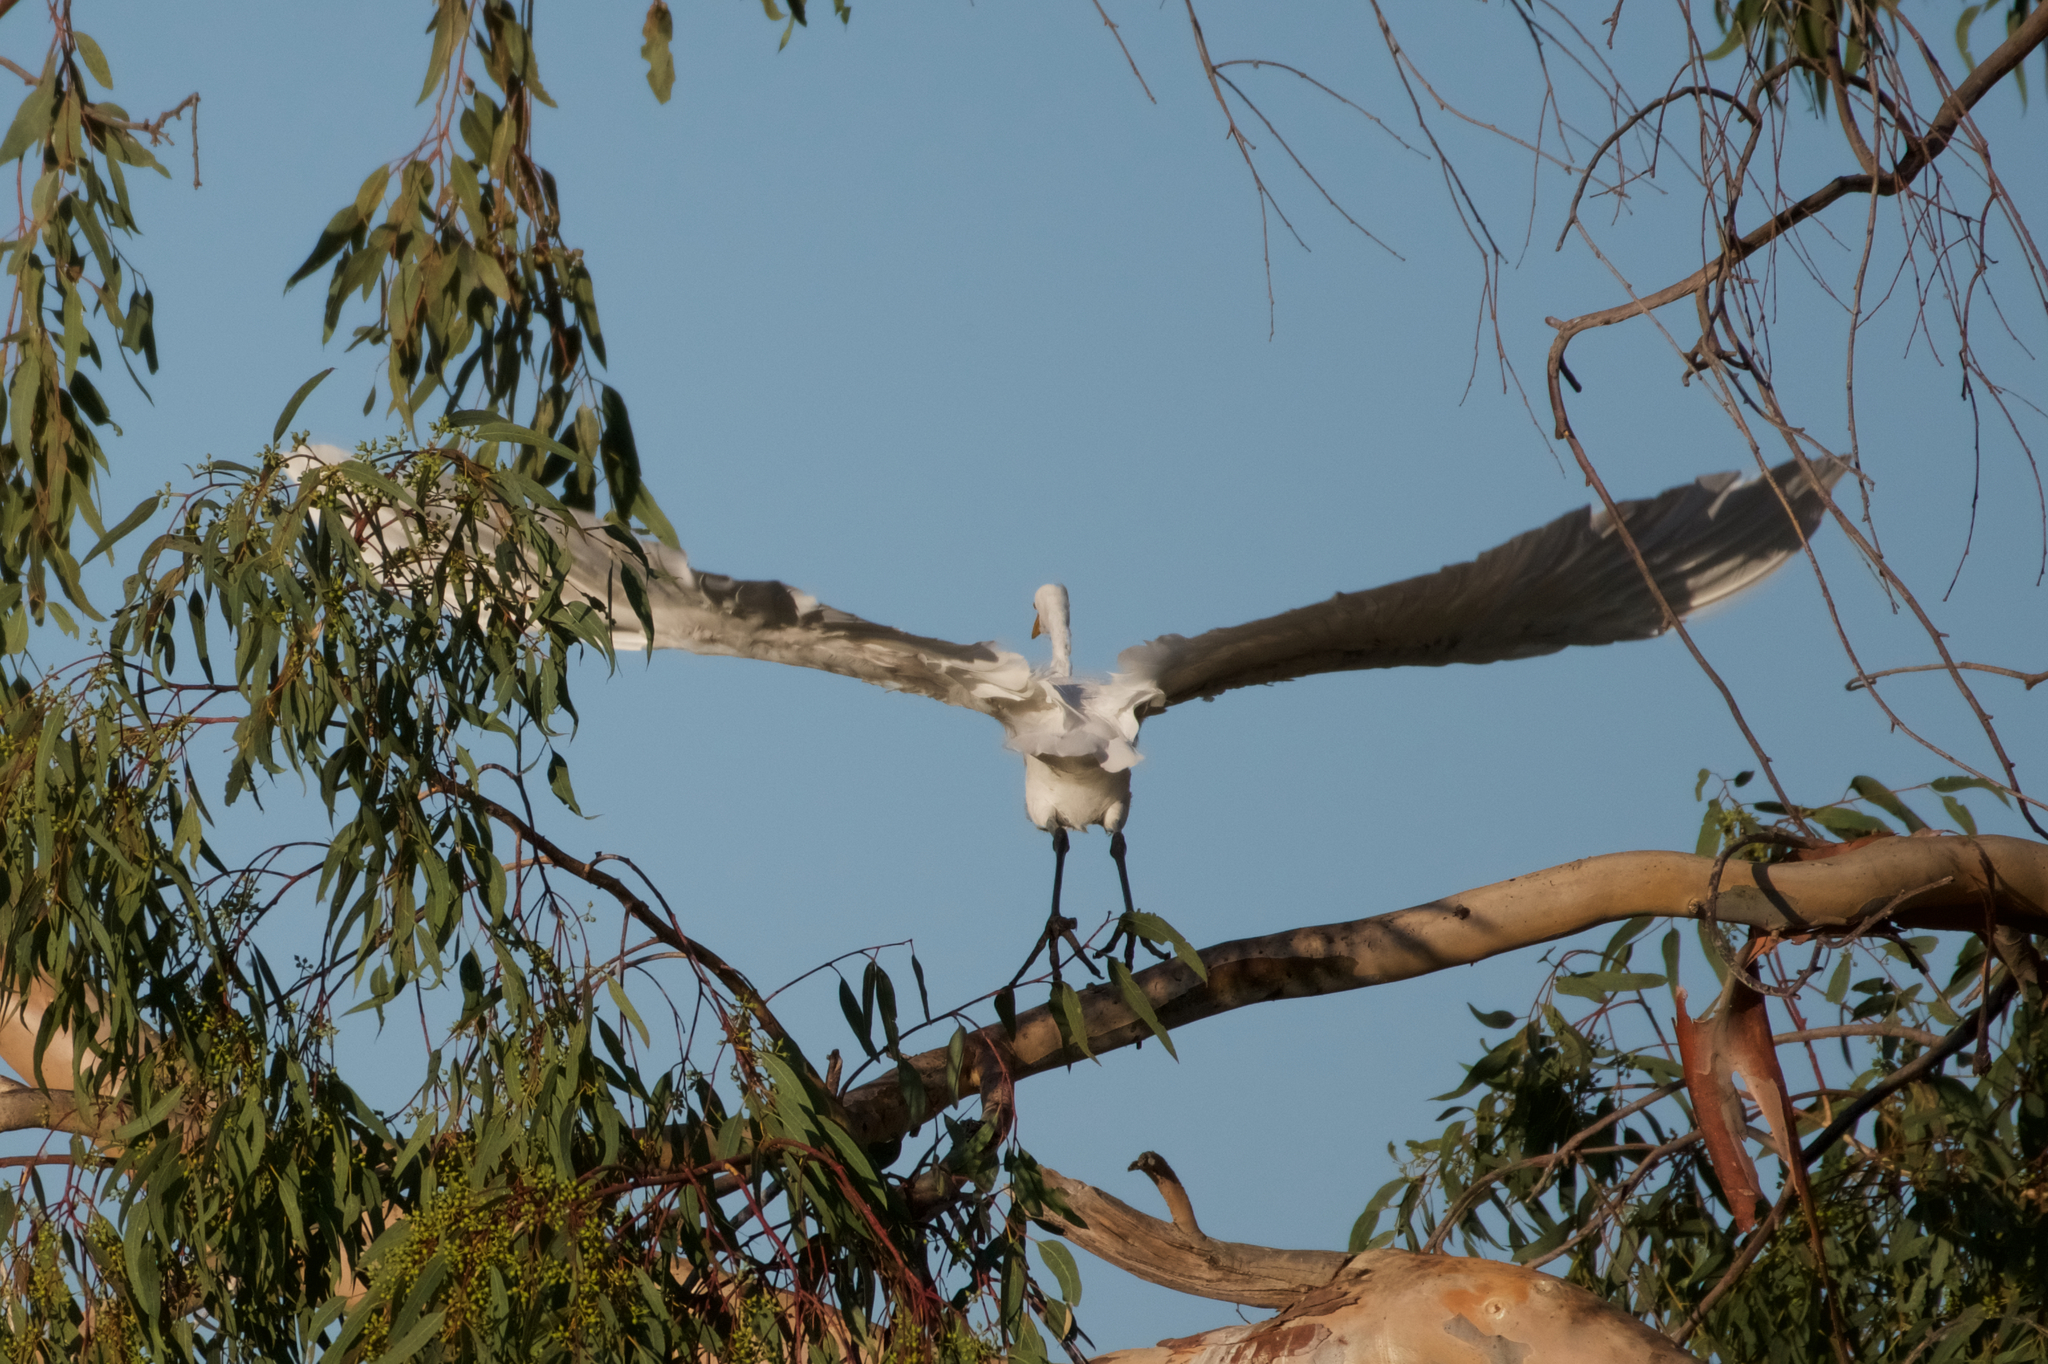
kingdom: Animalia
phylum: Chordata
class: Aves
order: Pelecaniformes
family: Ardeidae
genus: Ardea
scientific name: Ardea alba
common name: Great egret
